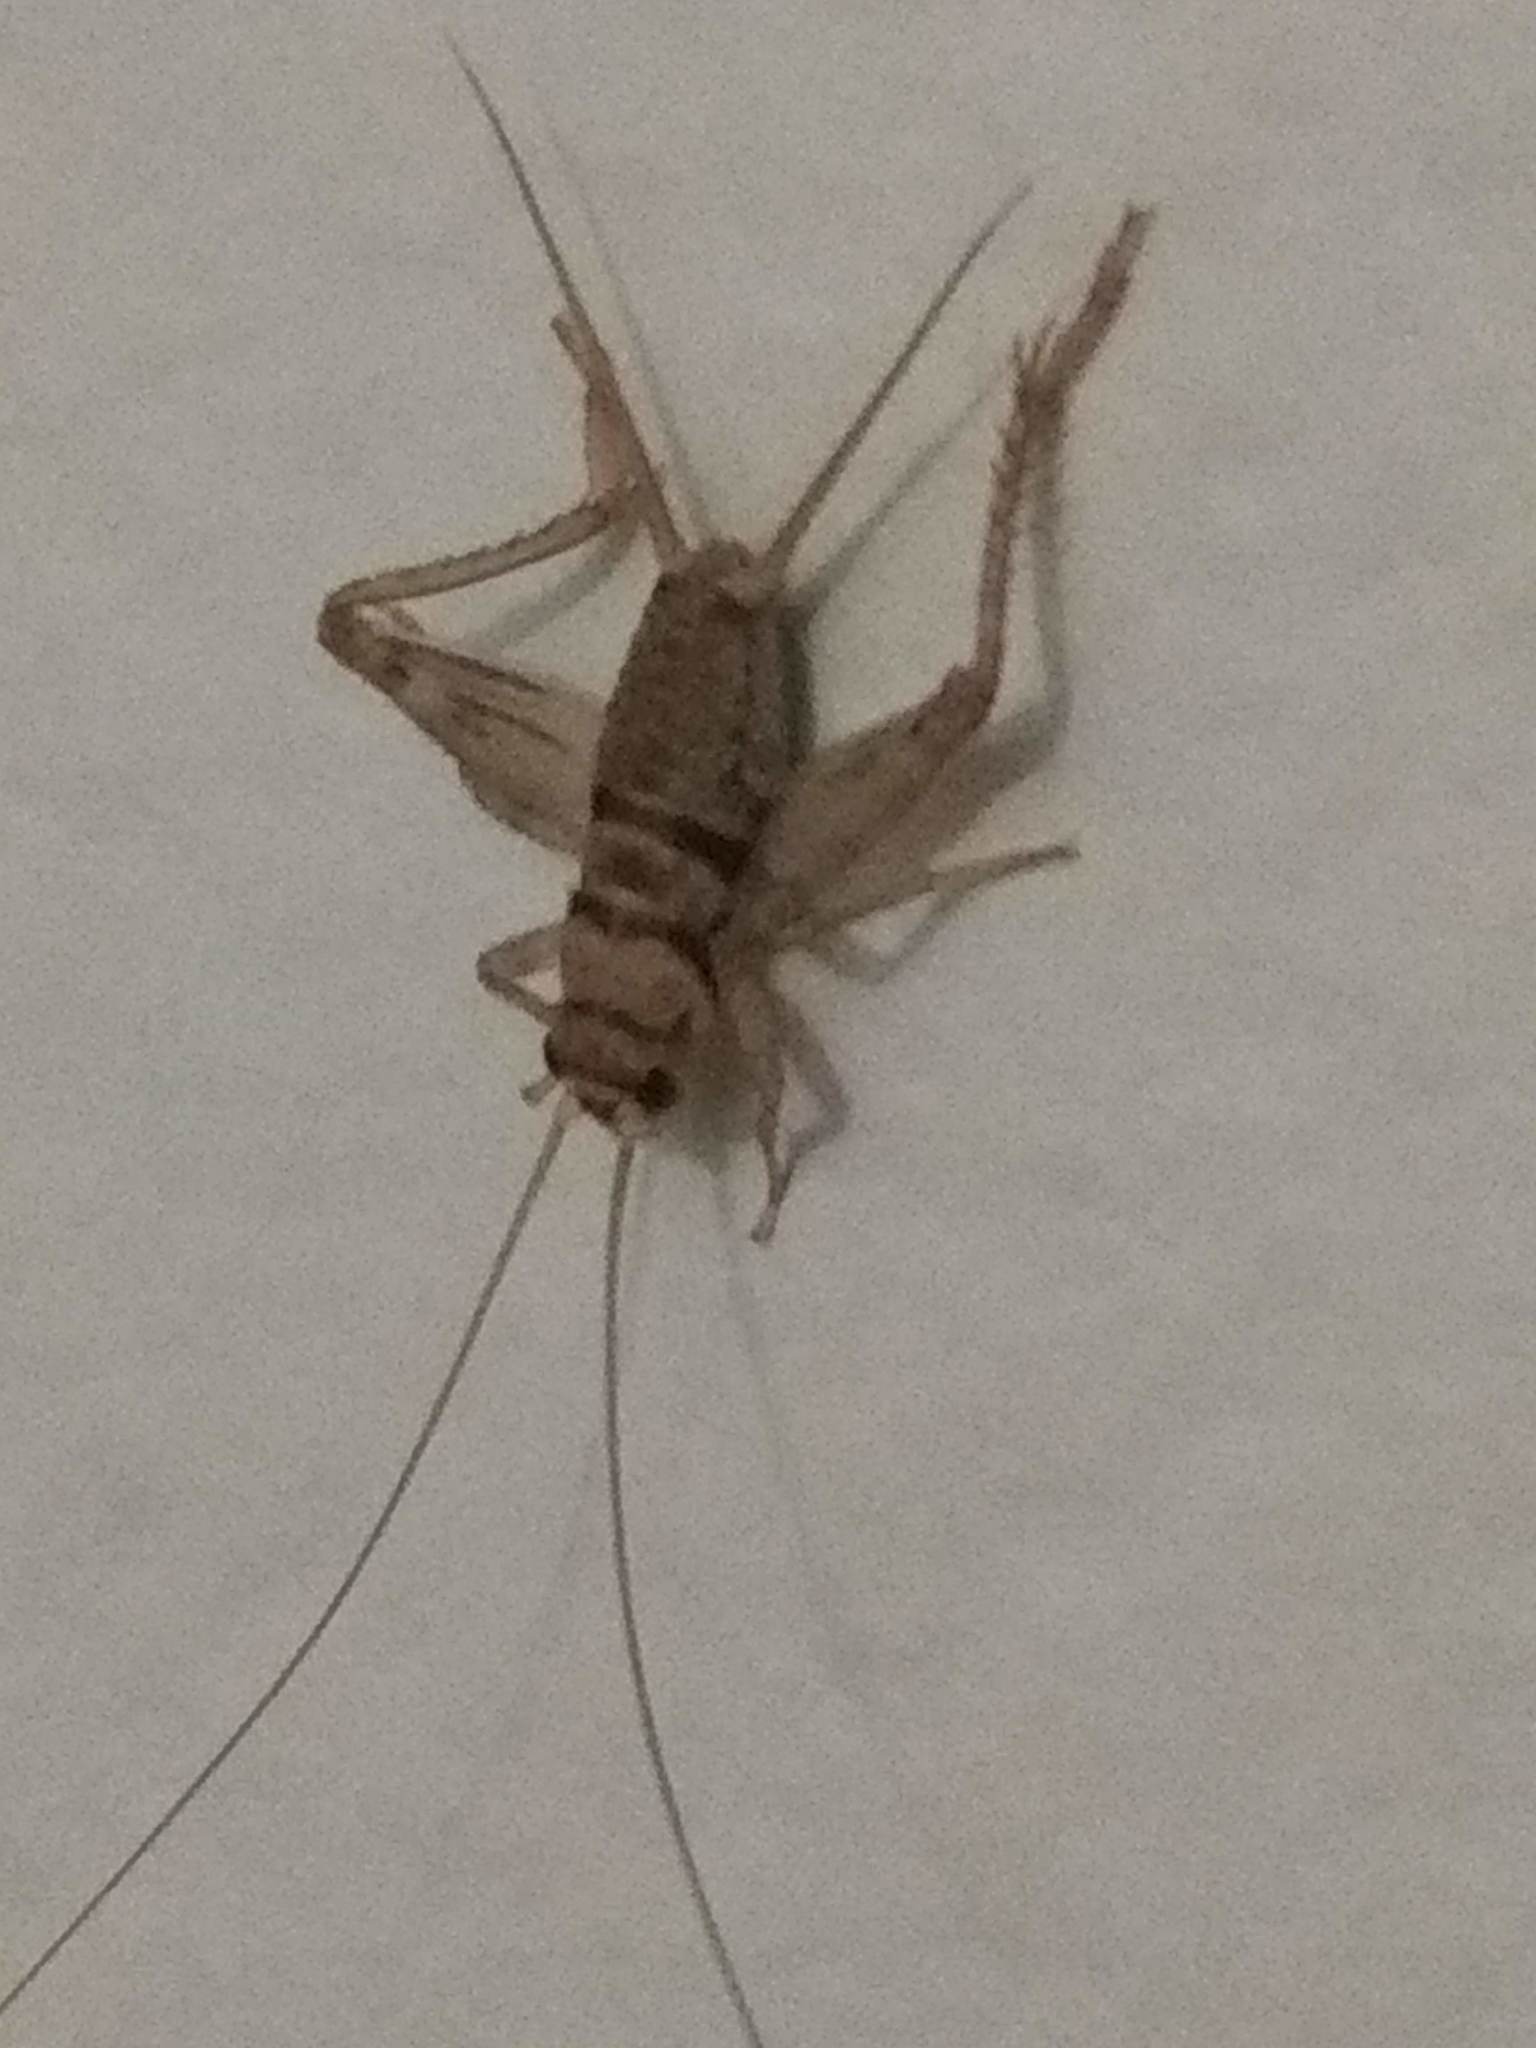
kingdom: Animalia
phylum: Arthropoda
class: Insecta
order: Orthoptera
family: Gryllidae
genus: Gryllodes
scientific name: Gryllodes sigillatus
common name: Tropical house cricket
